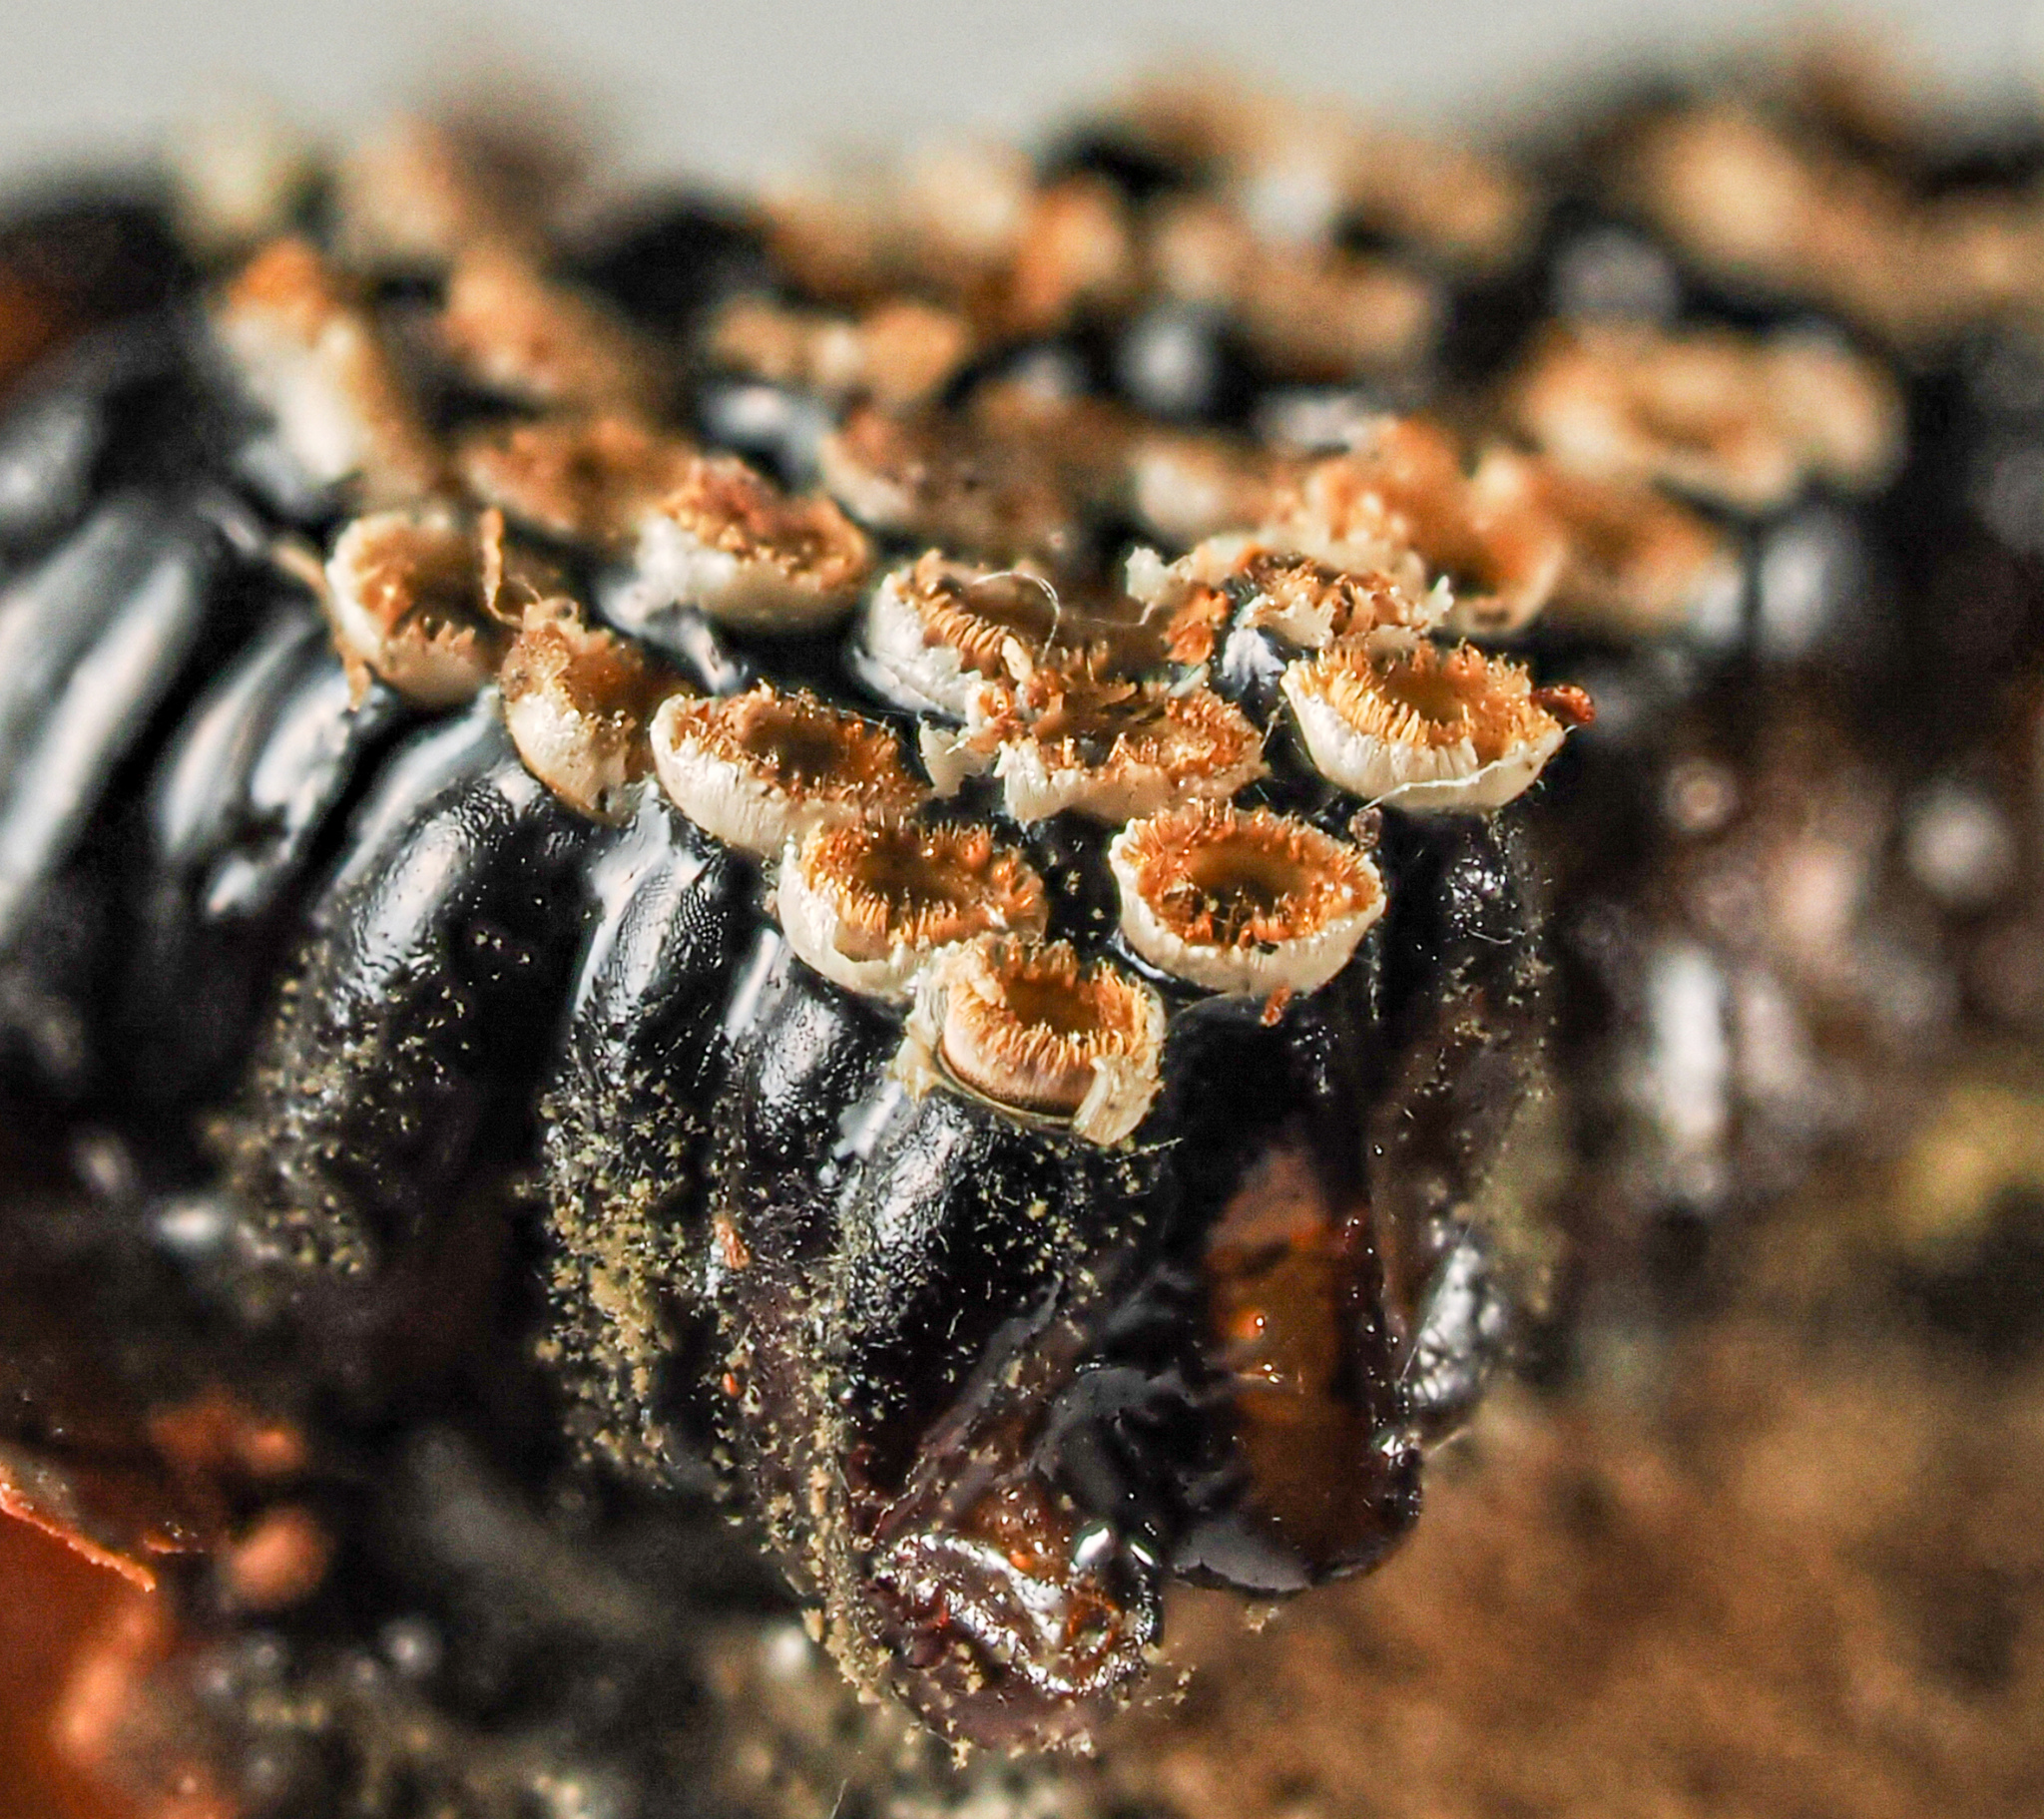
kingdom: Animalia
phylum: Arthropoda
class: Insecta
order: Hemiptera
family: Reduviidae
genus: Arilus
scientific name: Arilus cristatus
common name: North american wheel bug
